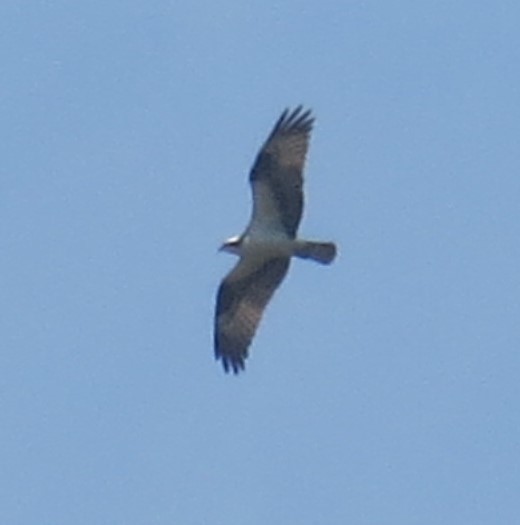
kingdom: Animalia
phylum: Chordata
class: Aves
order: Accipitriformes
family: Pandionidae
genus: Pandion
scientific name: Pandion haliaetus
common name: Osprey
